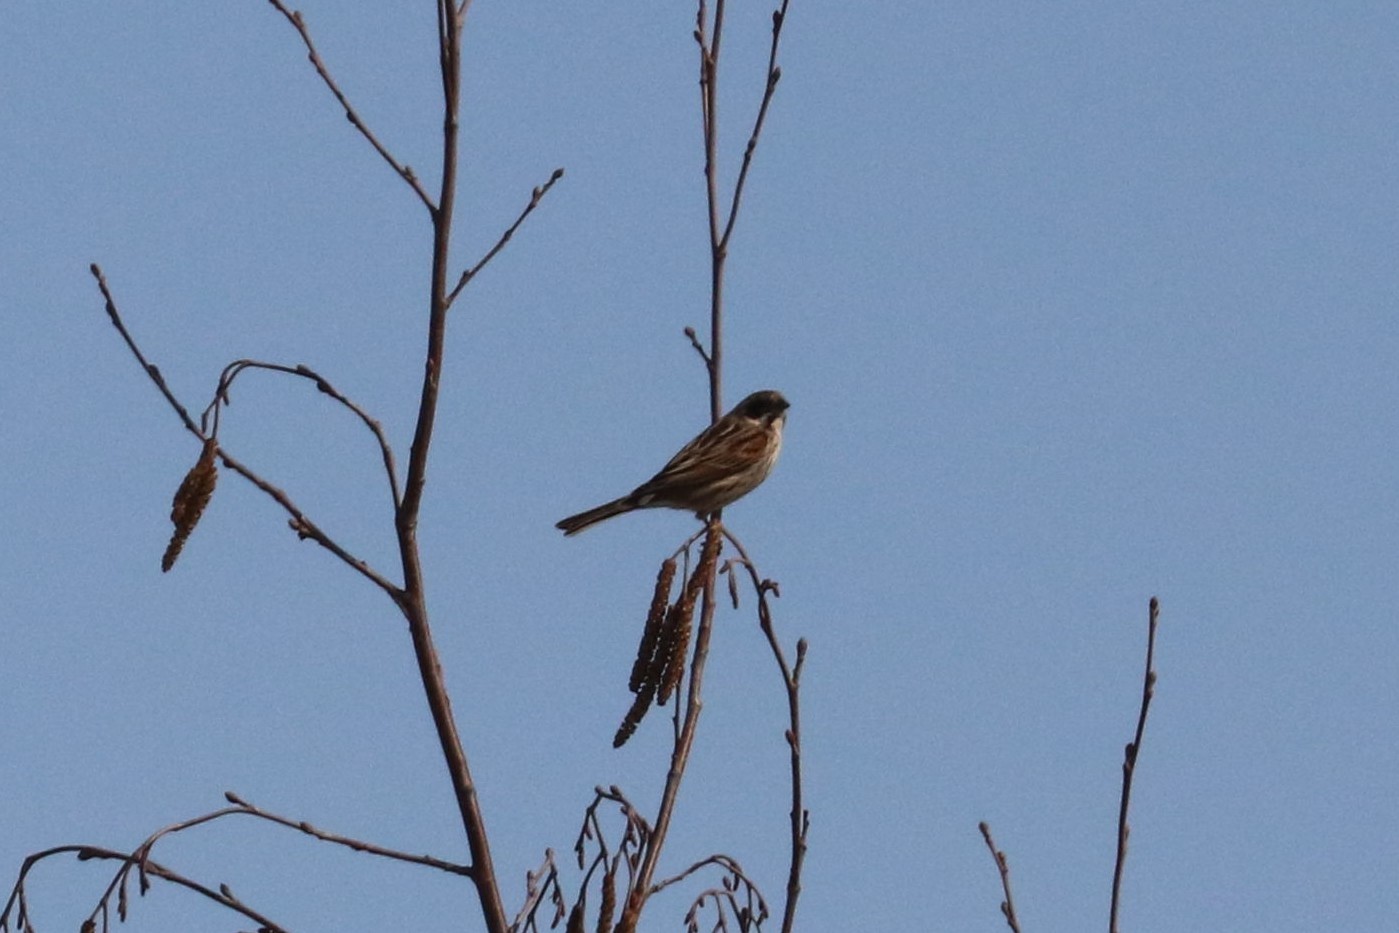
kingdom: Animalia
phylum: Chordata
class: Aves
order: Passeriformes
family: Emberizidae
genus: Emberiza
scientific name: Emberiza schoeniclus
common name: Reed bunting
